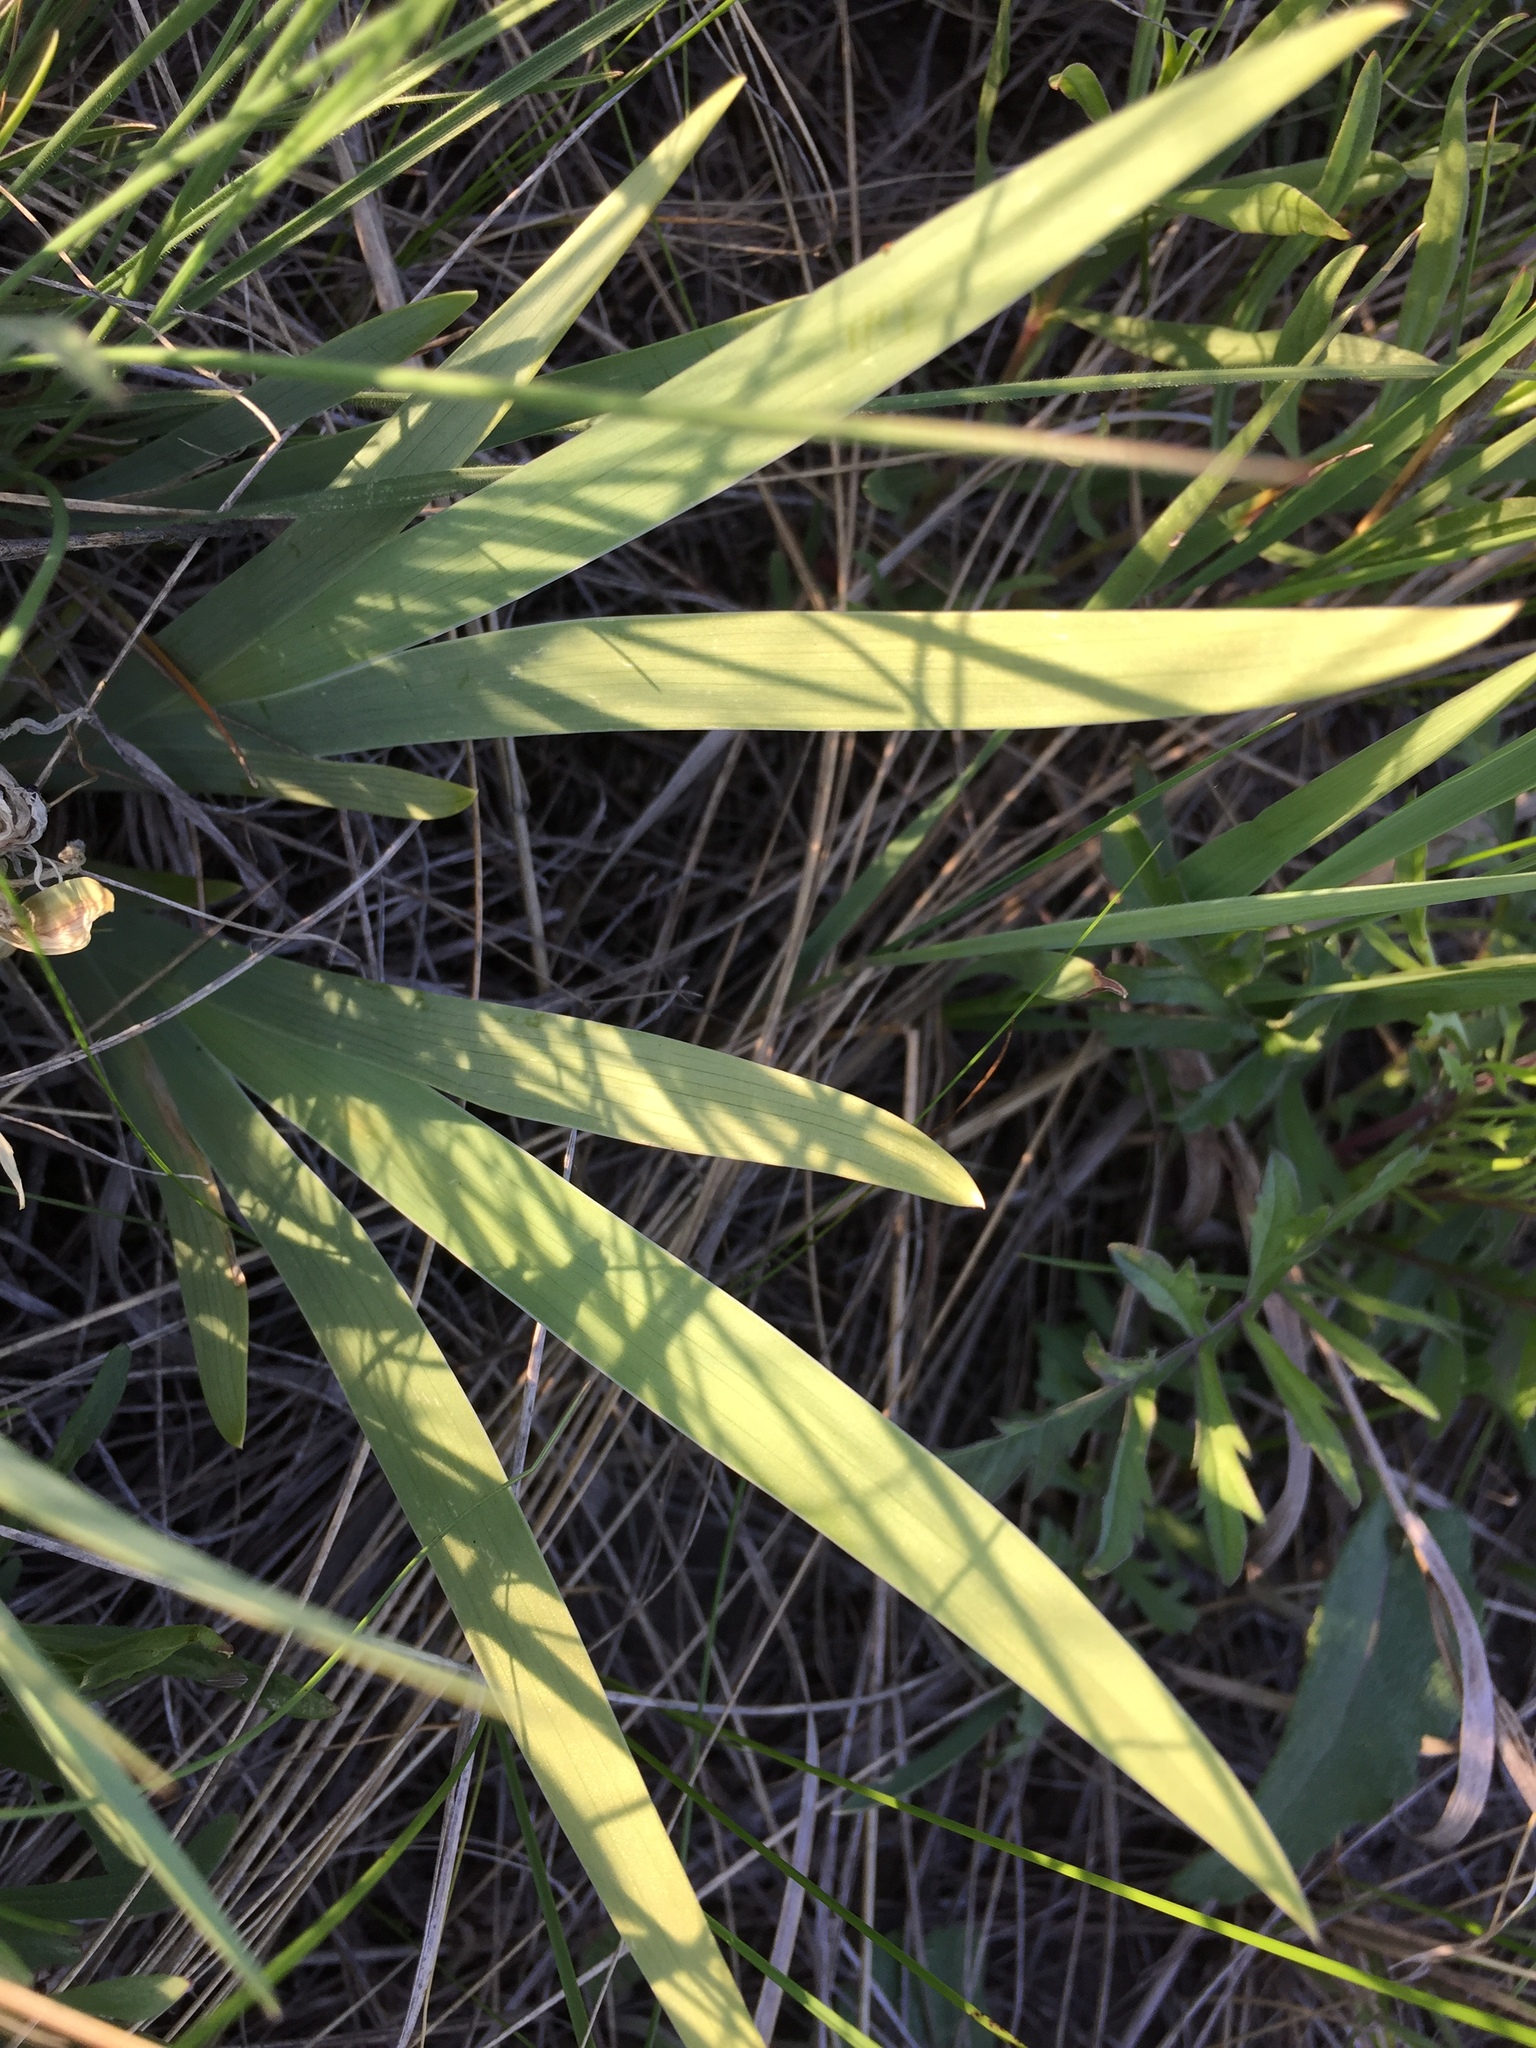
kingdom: Plantae
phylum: Tracheophyta
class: Liliopsida
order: Asparagales
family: Iridaceae
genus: Iris
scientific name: Iris aphylla
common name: Stool iris
